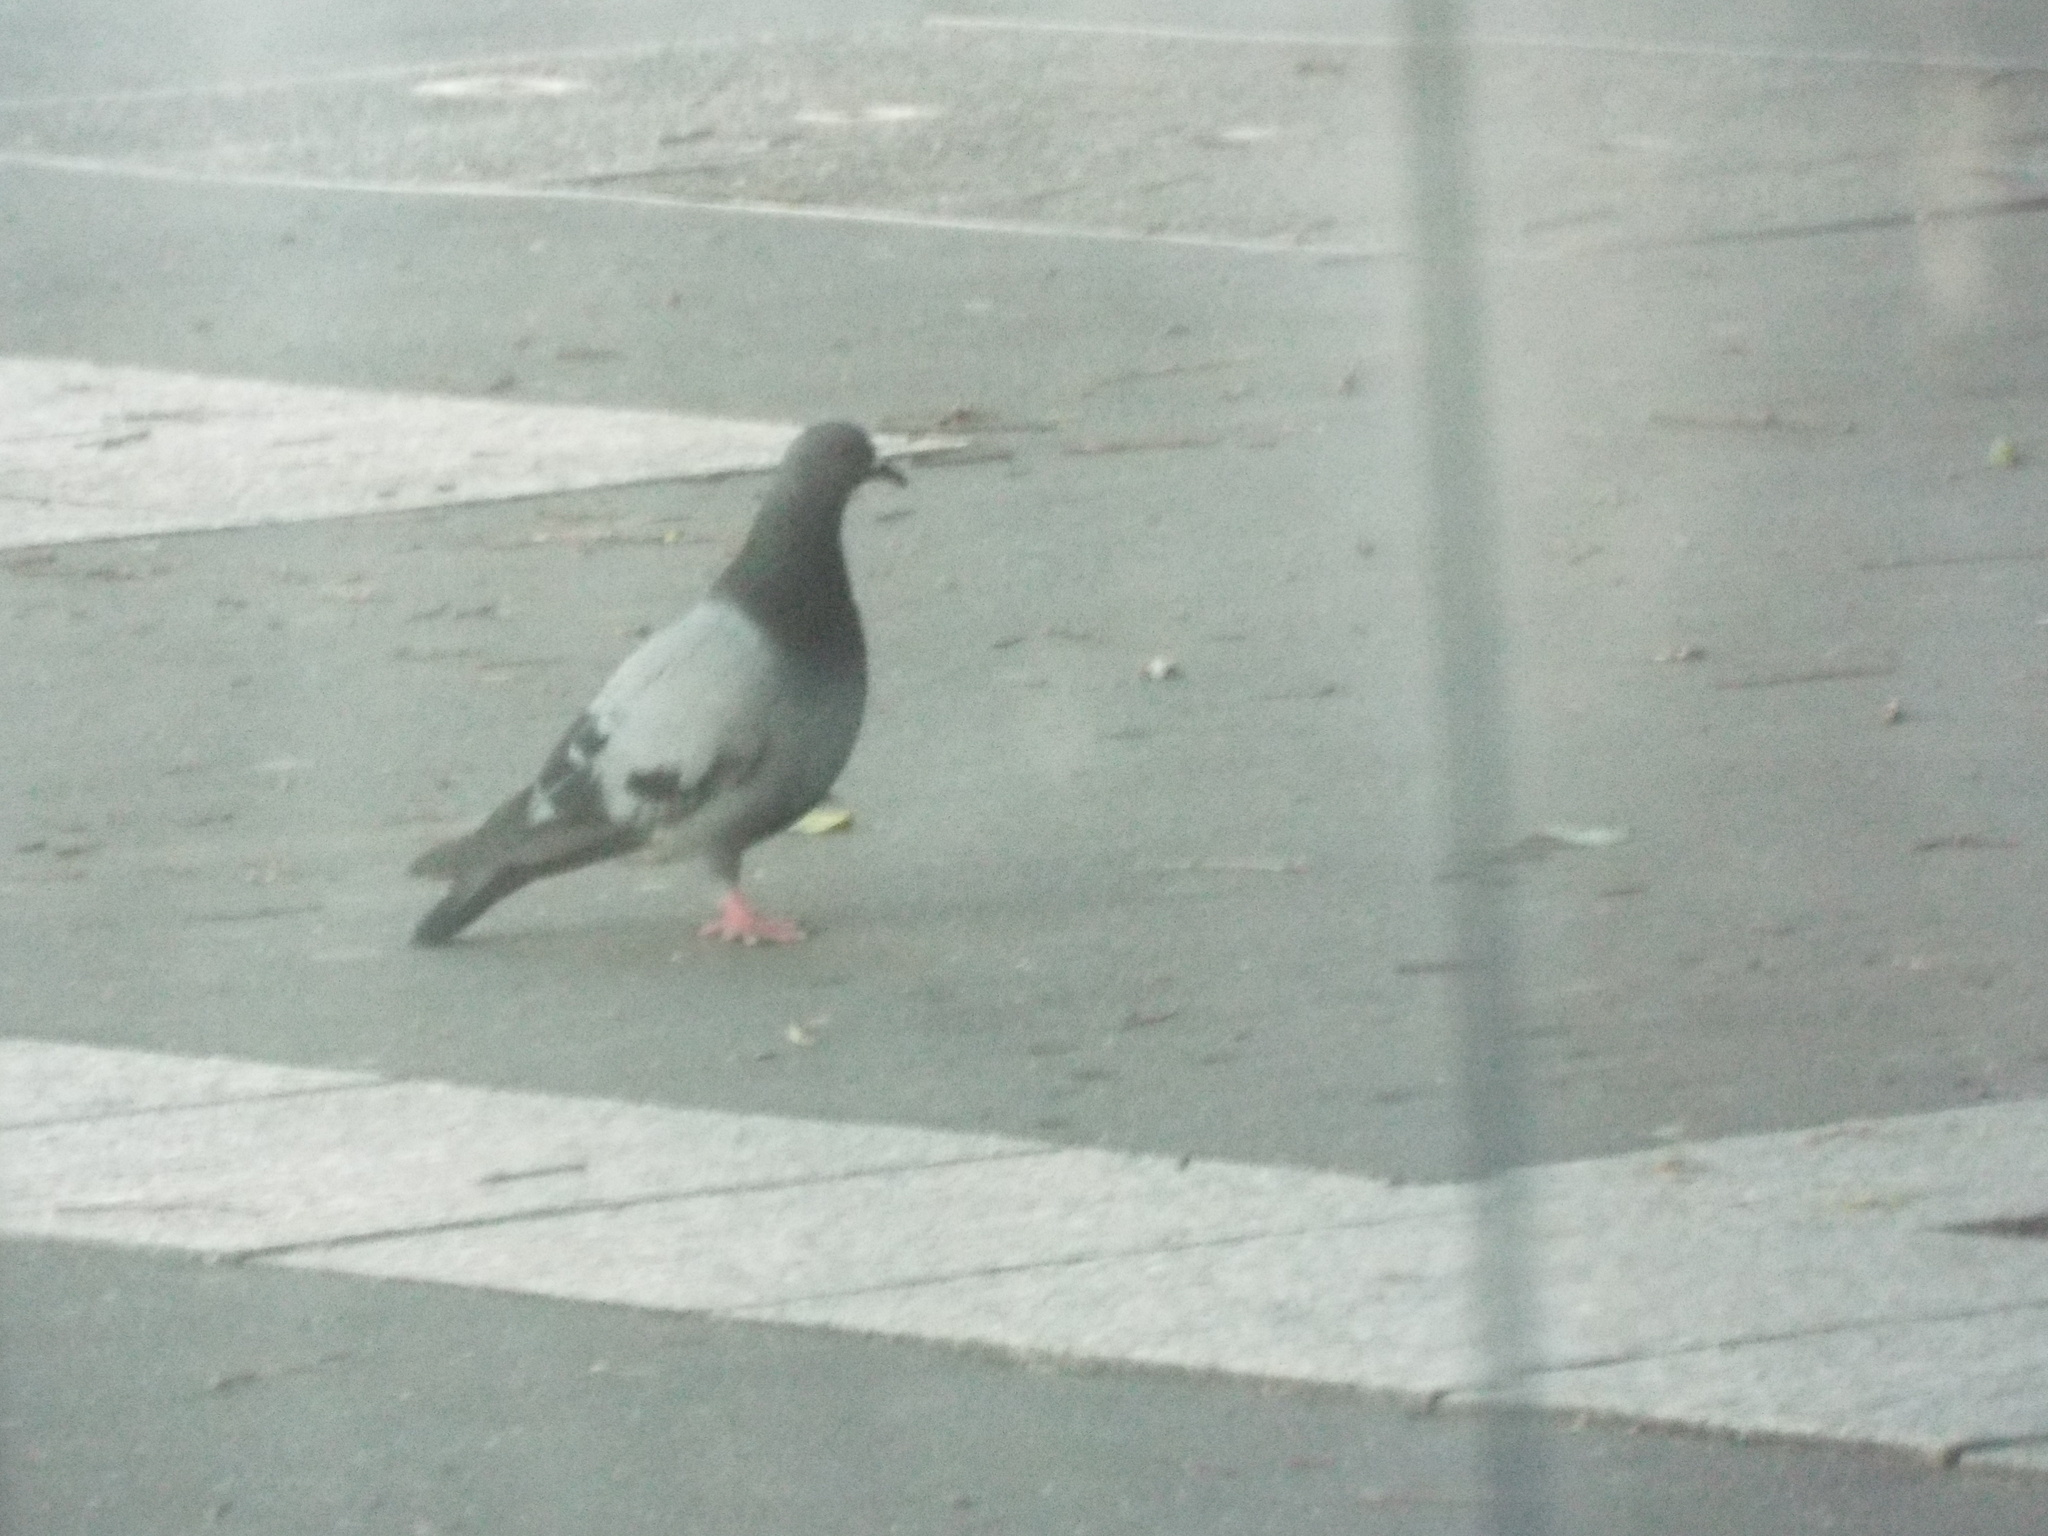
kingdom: Animalia
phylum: Chordata
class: Aves
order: Columbiformes
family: Columbidae
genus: Columba
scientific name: Columba livia
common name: Rock pigeon
